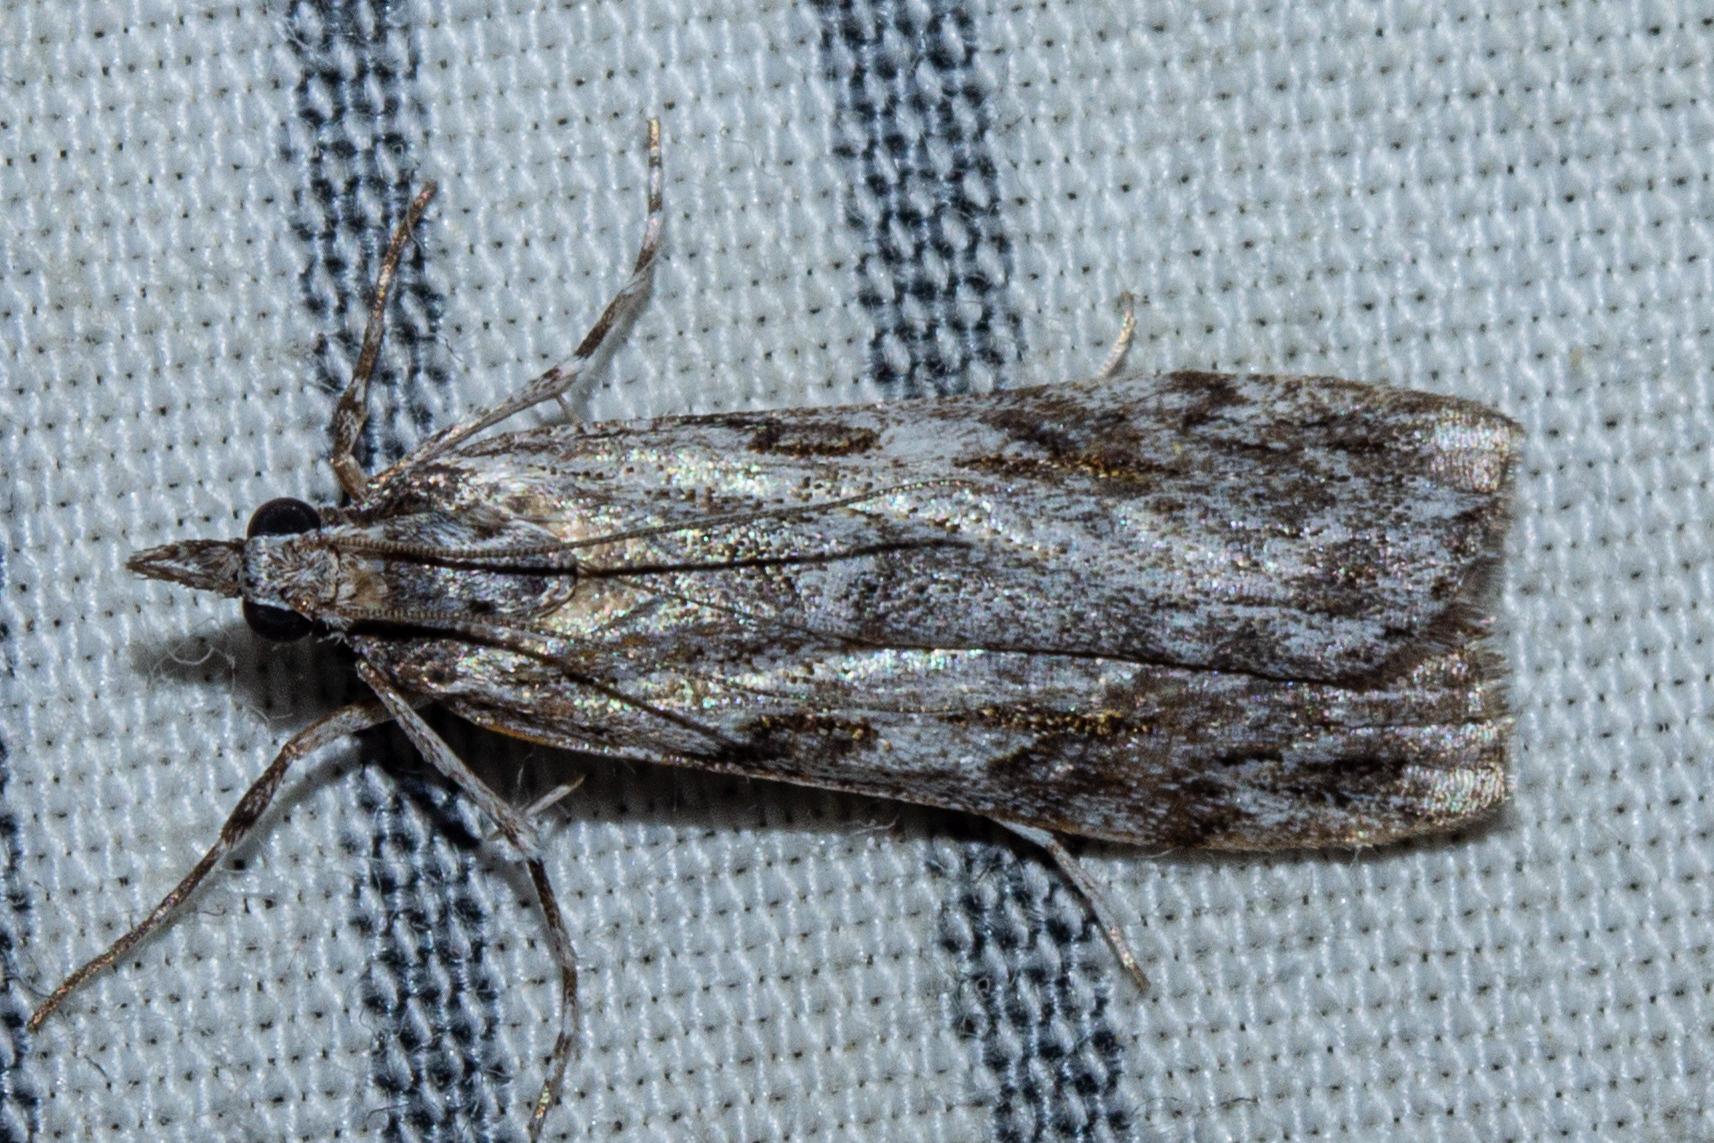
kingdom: Animalia
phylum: Arthropoda
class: Insecta
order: Lepidoptera
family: Crambidae
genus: Scoparia
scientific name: Scoparia halopis
